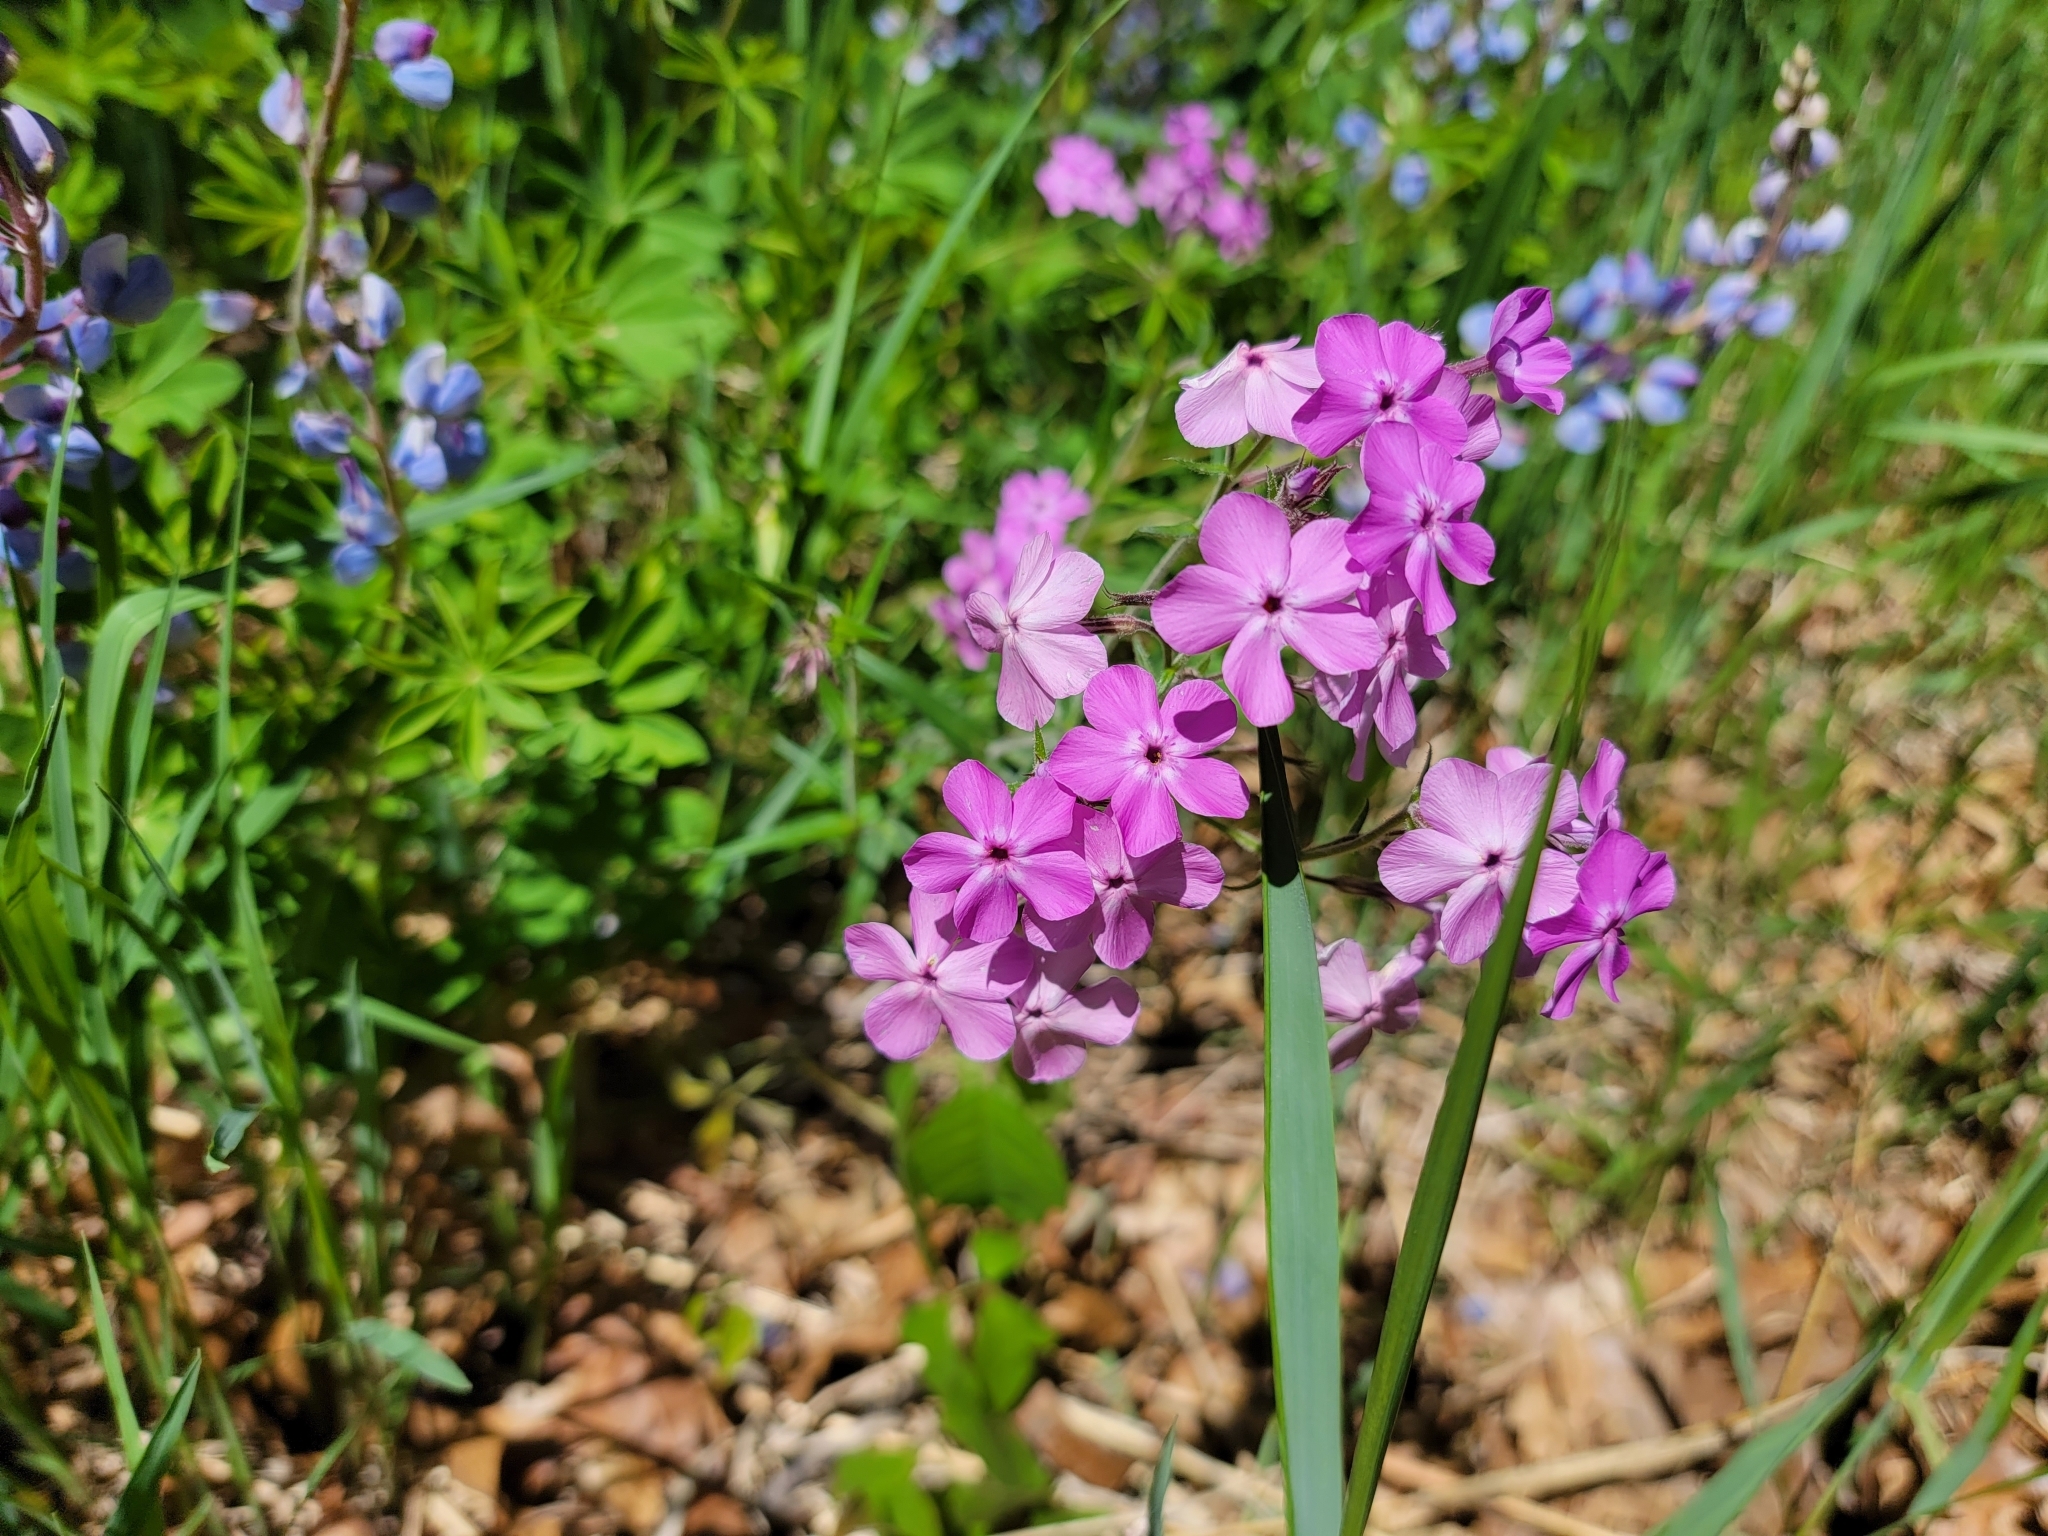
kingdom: Plantae
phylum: Tracheophyta
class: Magnoliopsida
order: Ericales
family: Polemoniaceae
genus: Phlox
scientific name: Phlox pilosa
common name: Prairie phlox
